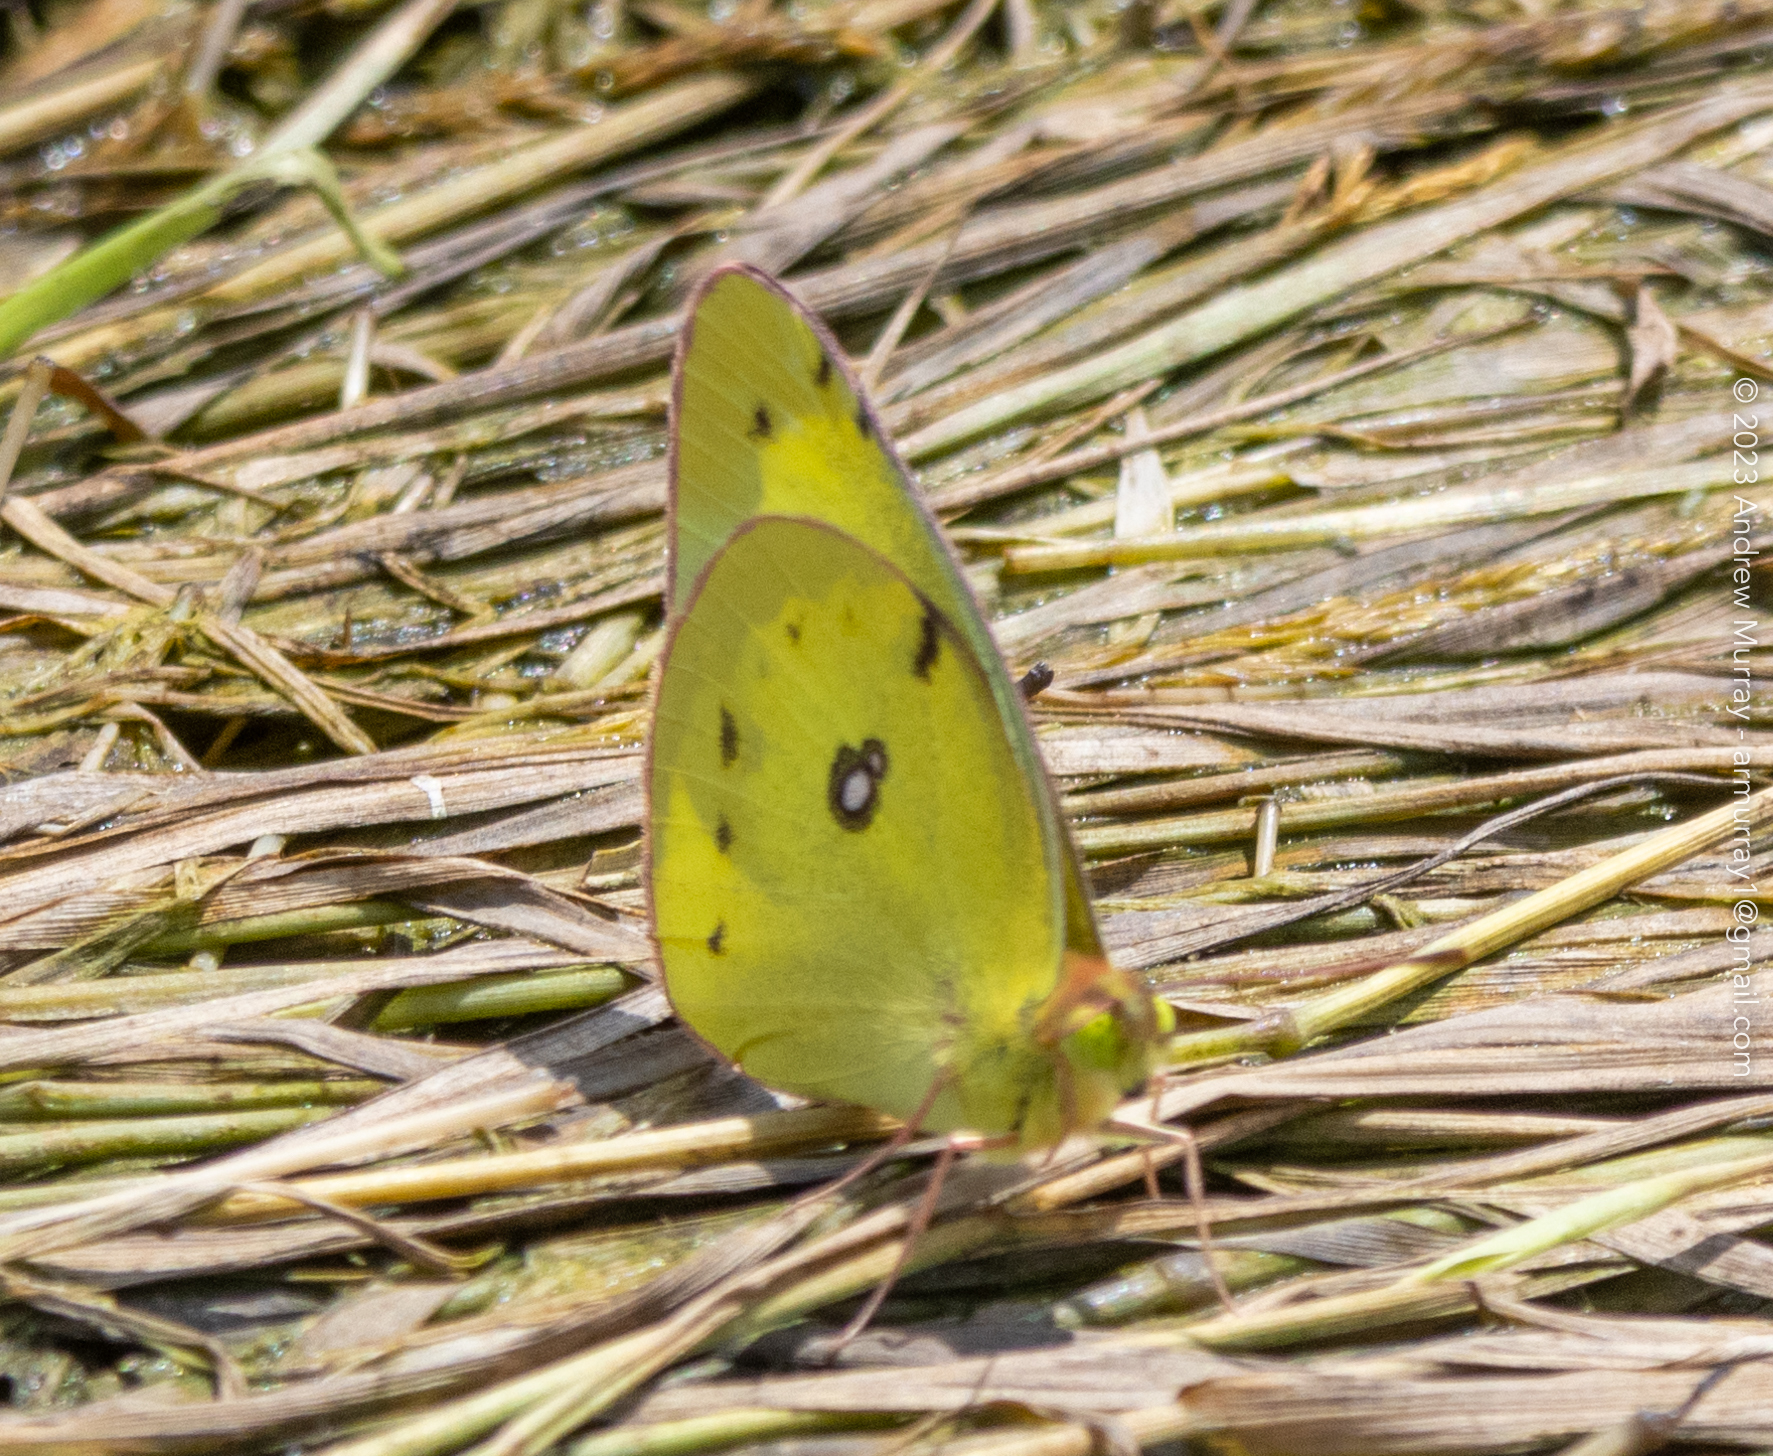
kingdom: Animalia
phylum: Arthropoda
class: Insecta
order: Lepidoptera
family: Pieridae
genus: Colias
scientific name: Colias philodice
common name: Clouded sulphur
